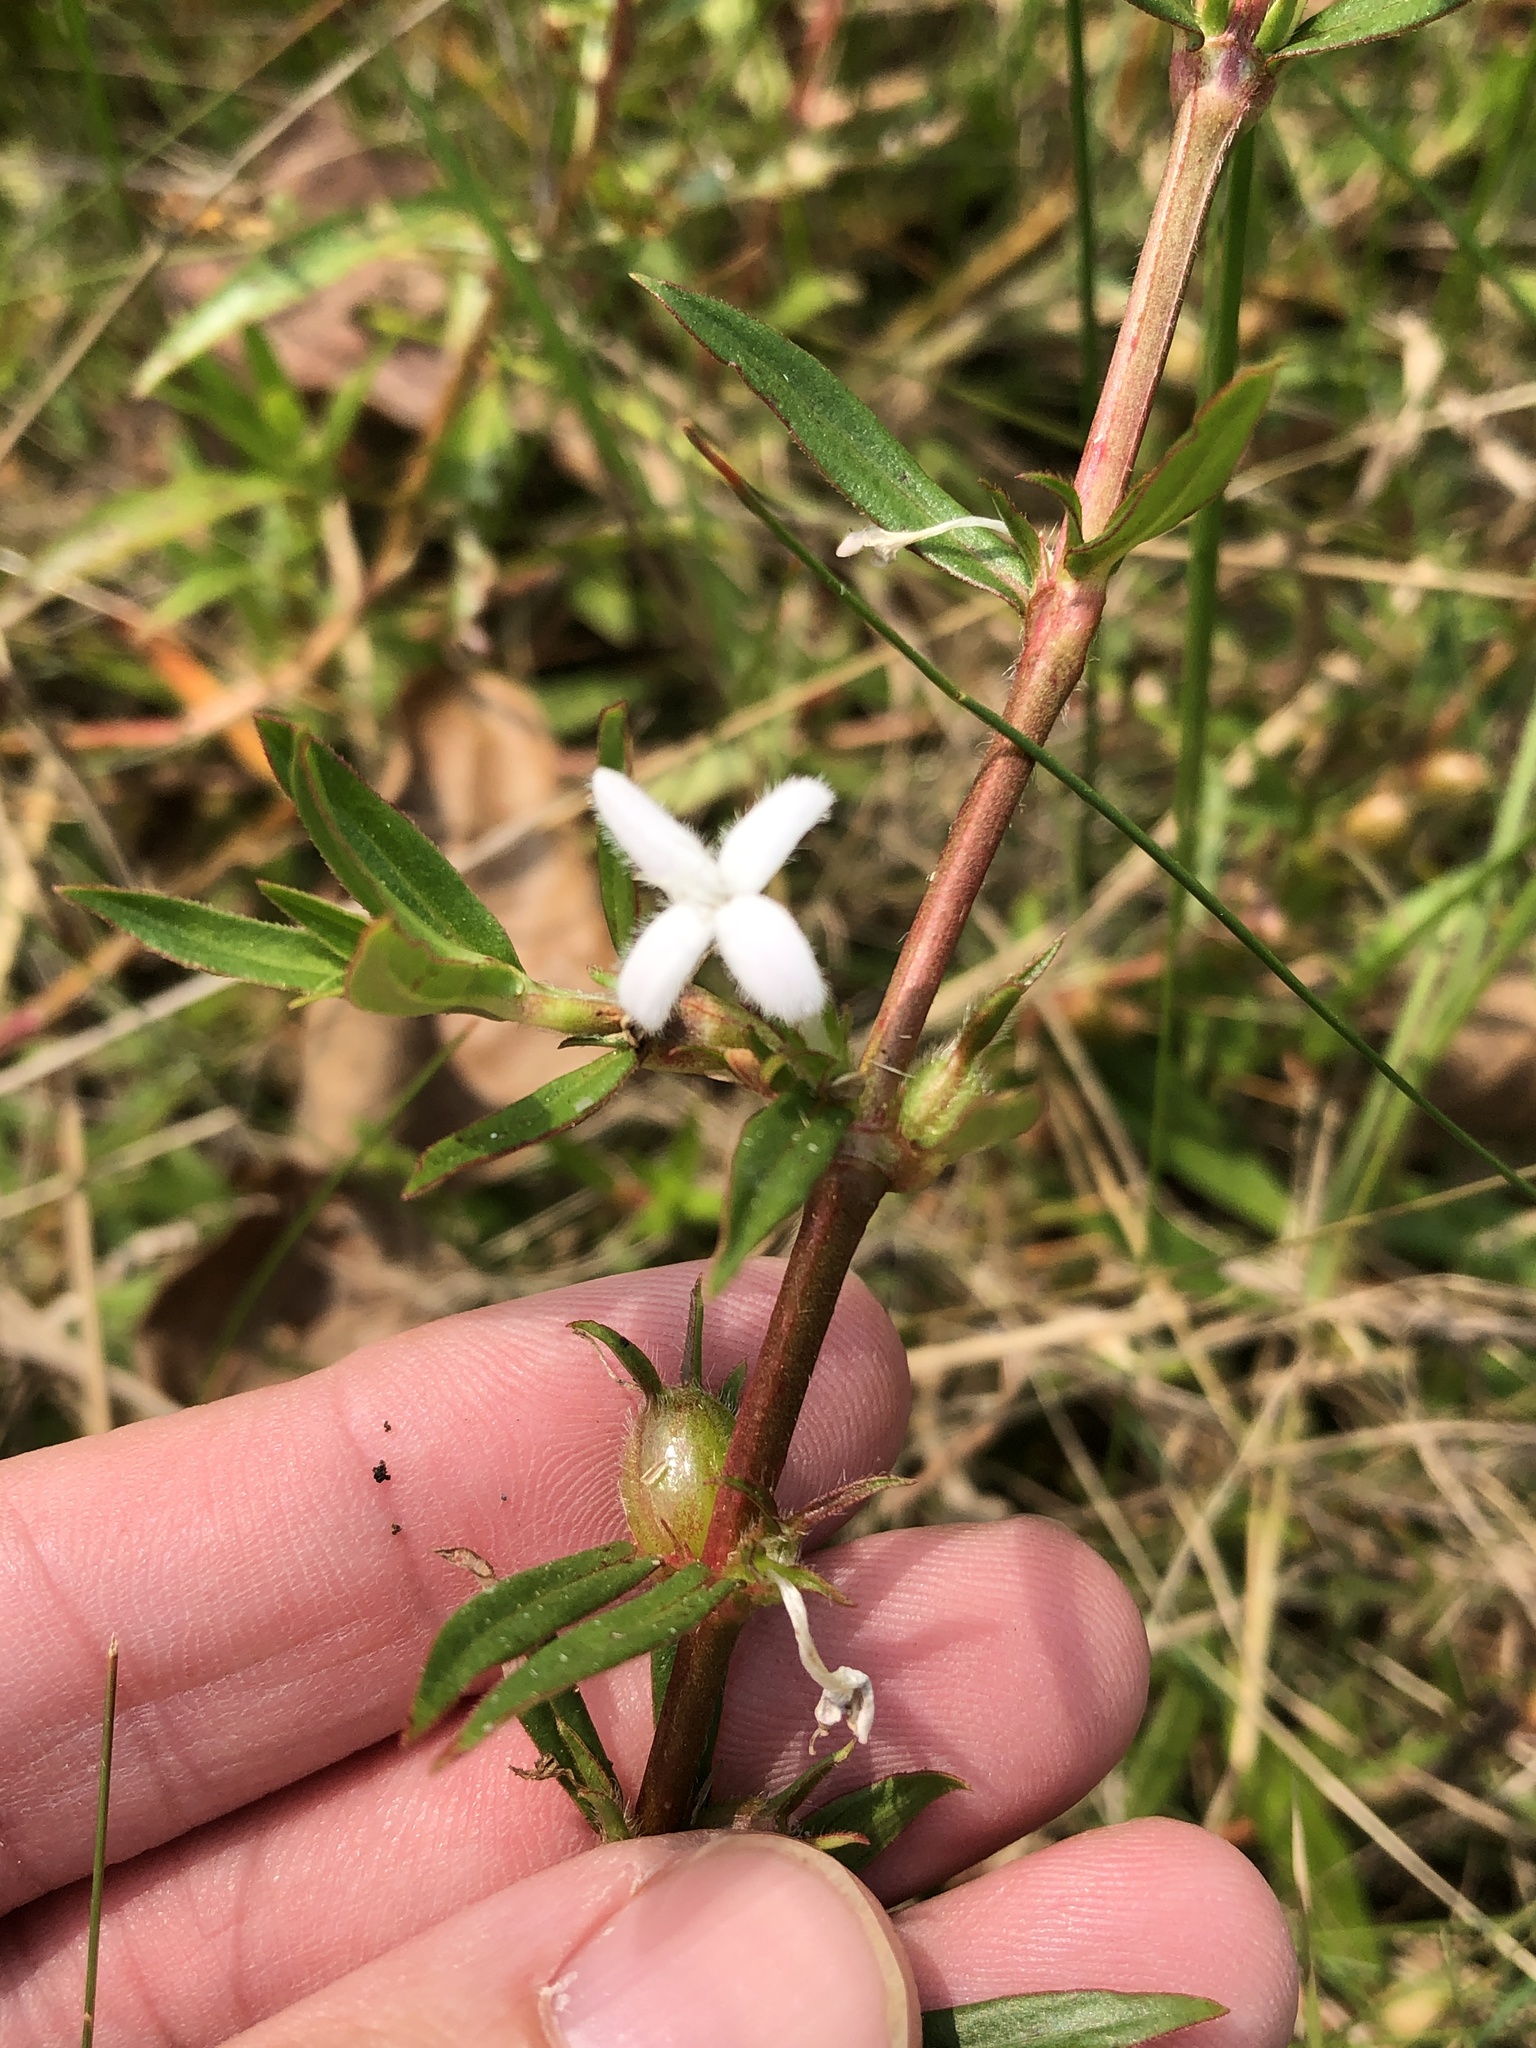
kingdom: Plantae
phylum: Tracheophyta
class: Magnoliopsida
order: Gentianales
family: Rubiaceae
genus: Diodia
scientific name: Diodia virginiana
